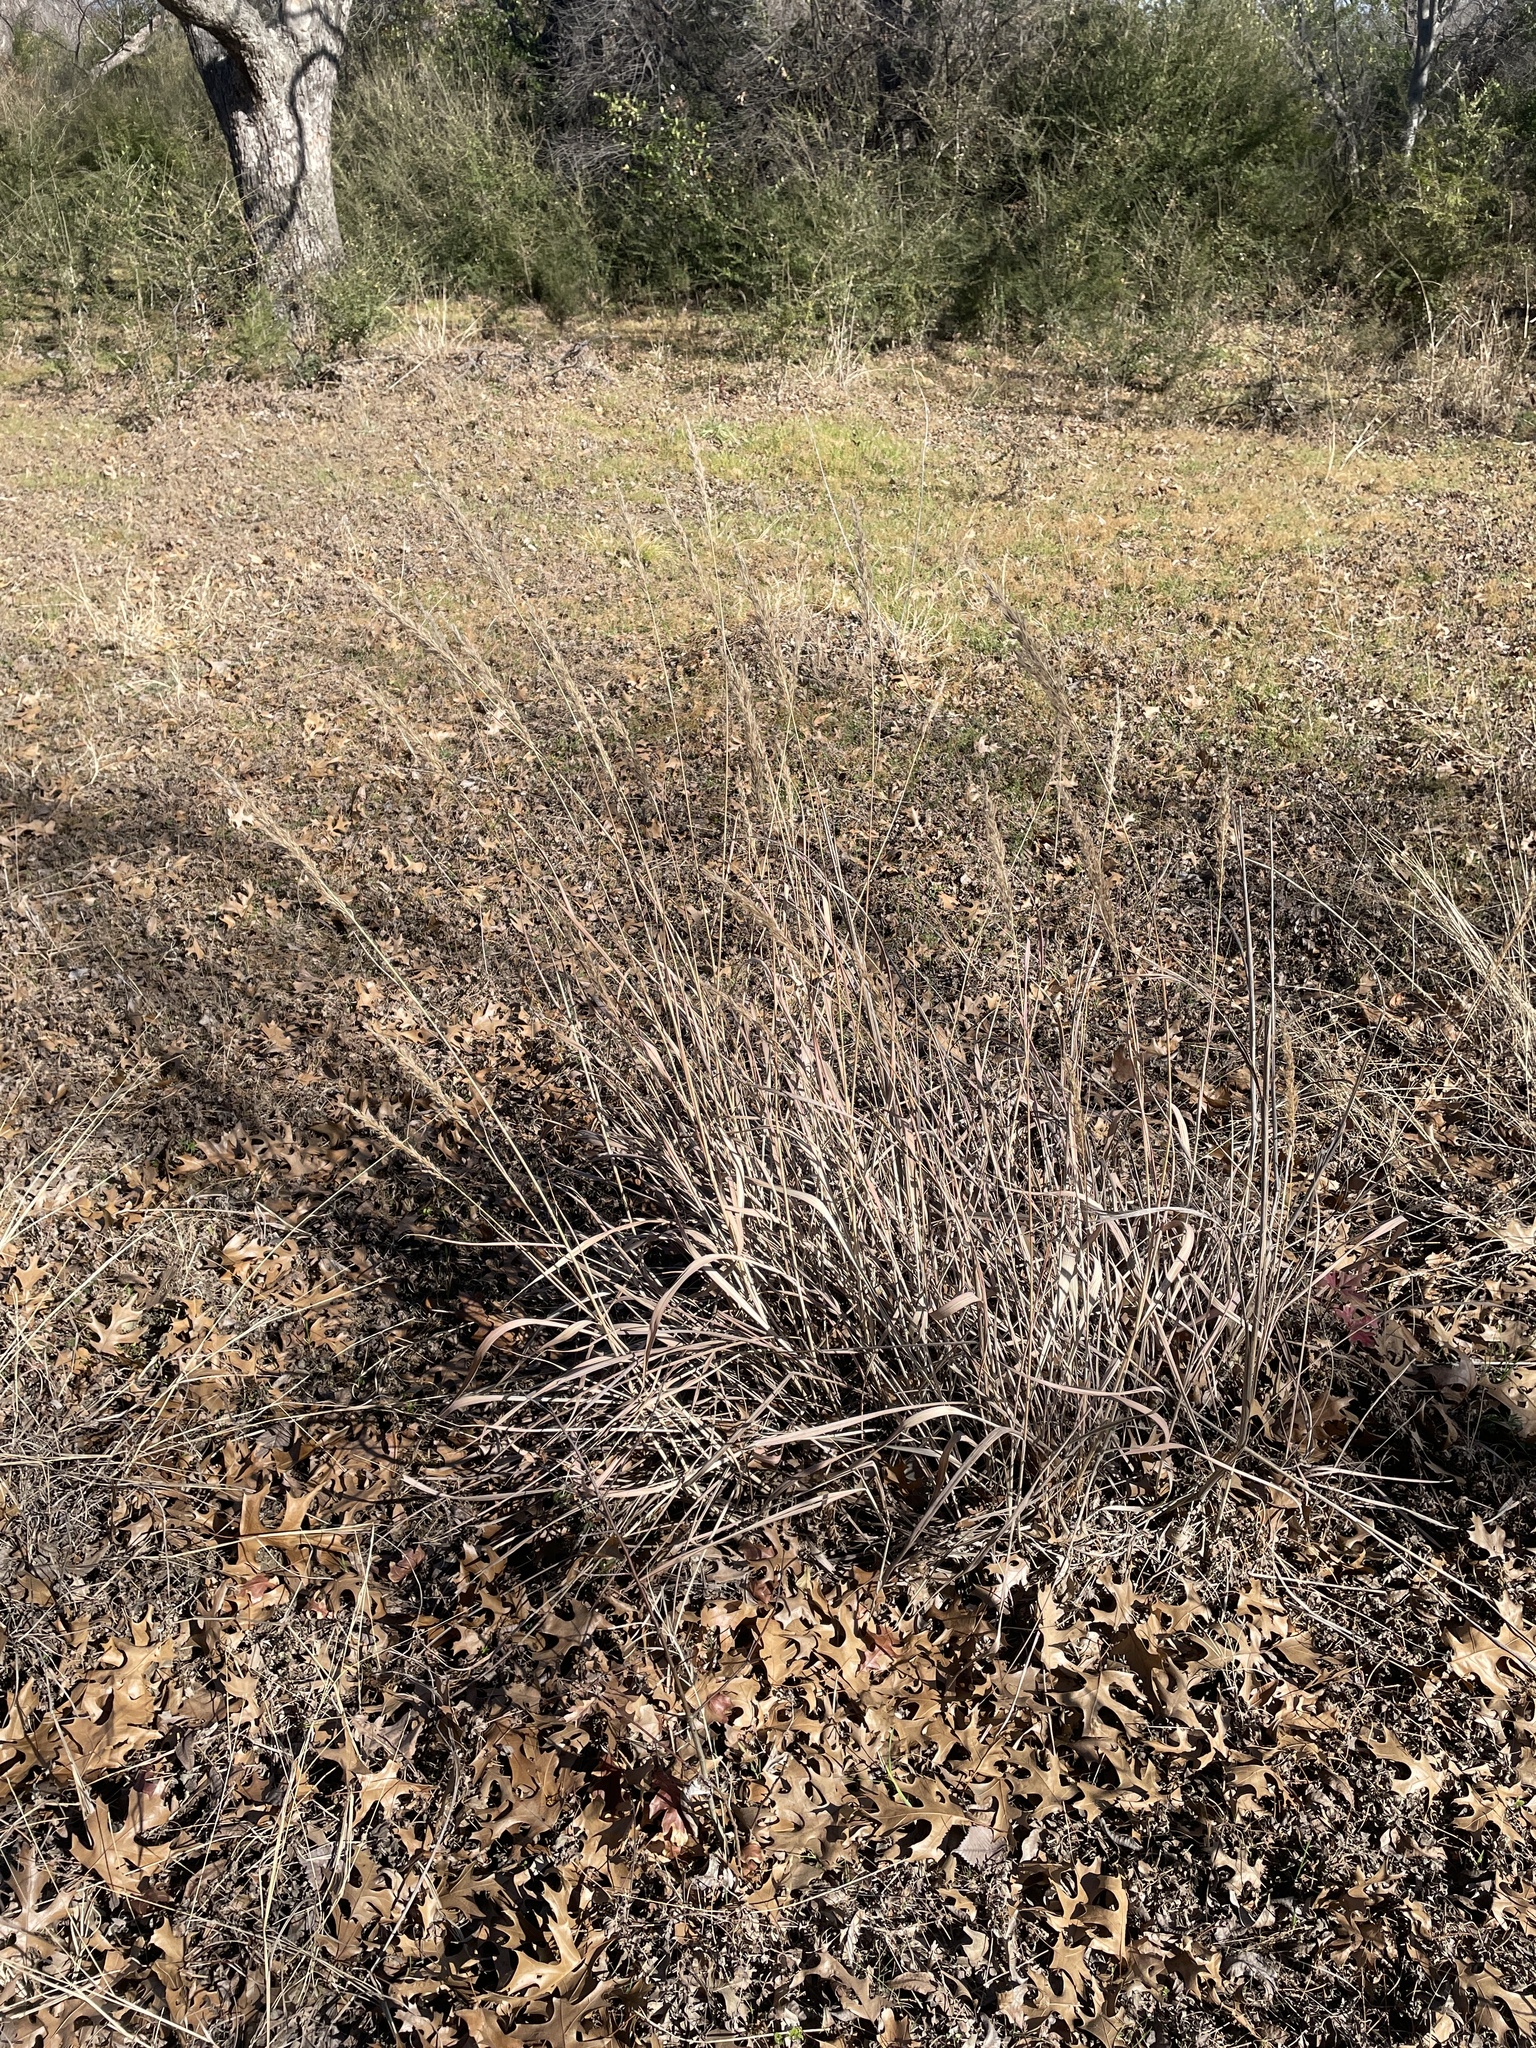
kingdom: Plantae
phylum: Tracheophyta
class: Liliopsida
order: Poales
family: Poaceae
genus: Sorghastrum
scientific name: Sorghastrum nutans
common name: Indian grass
